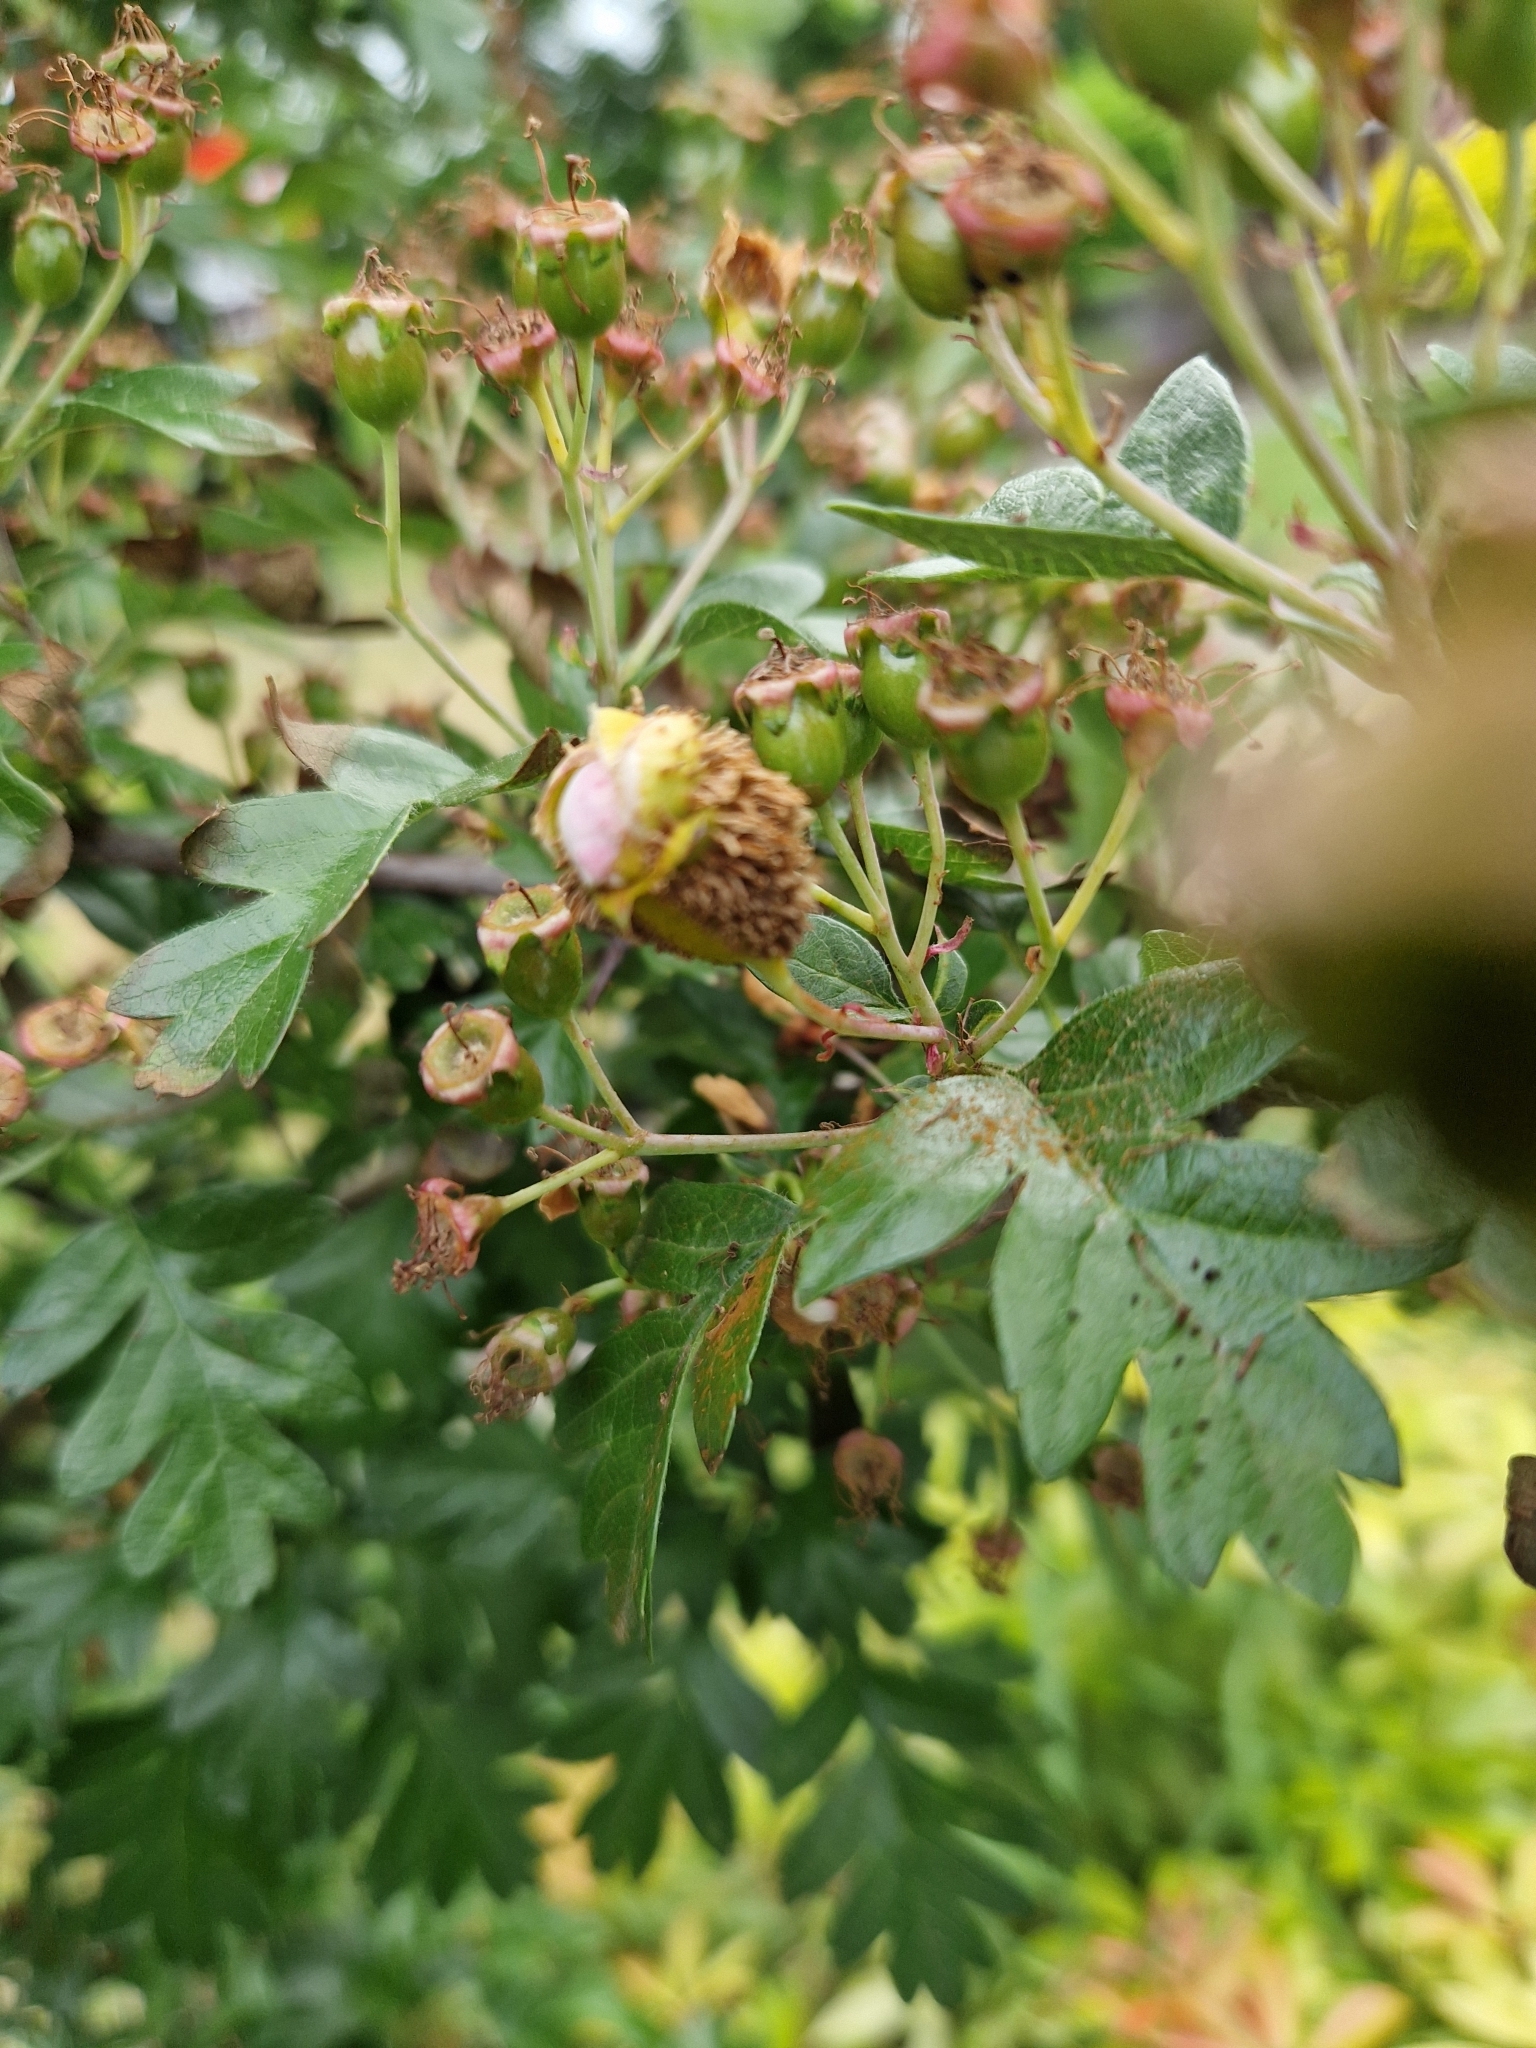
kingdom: Fungi
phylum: Basidiomycota
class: Pucciniomycetes
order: Pucciniales
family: Gymnosporangiaceae
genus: Gymnosporangium
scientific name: Gymnosporangium clavariiforme
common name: Tongues of fire
